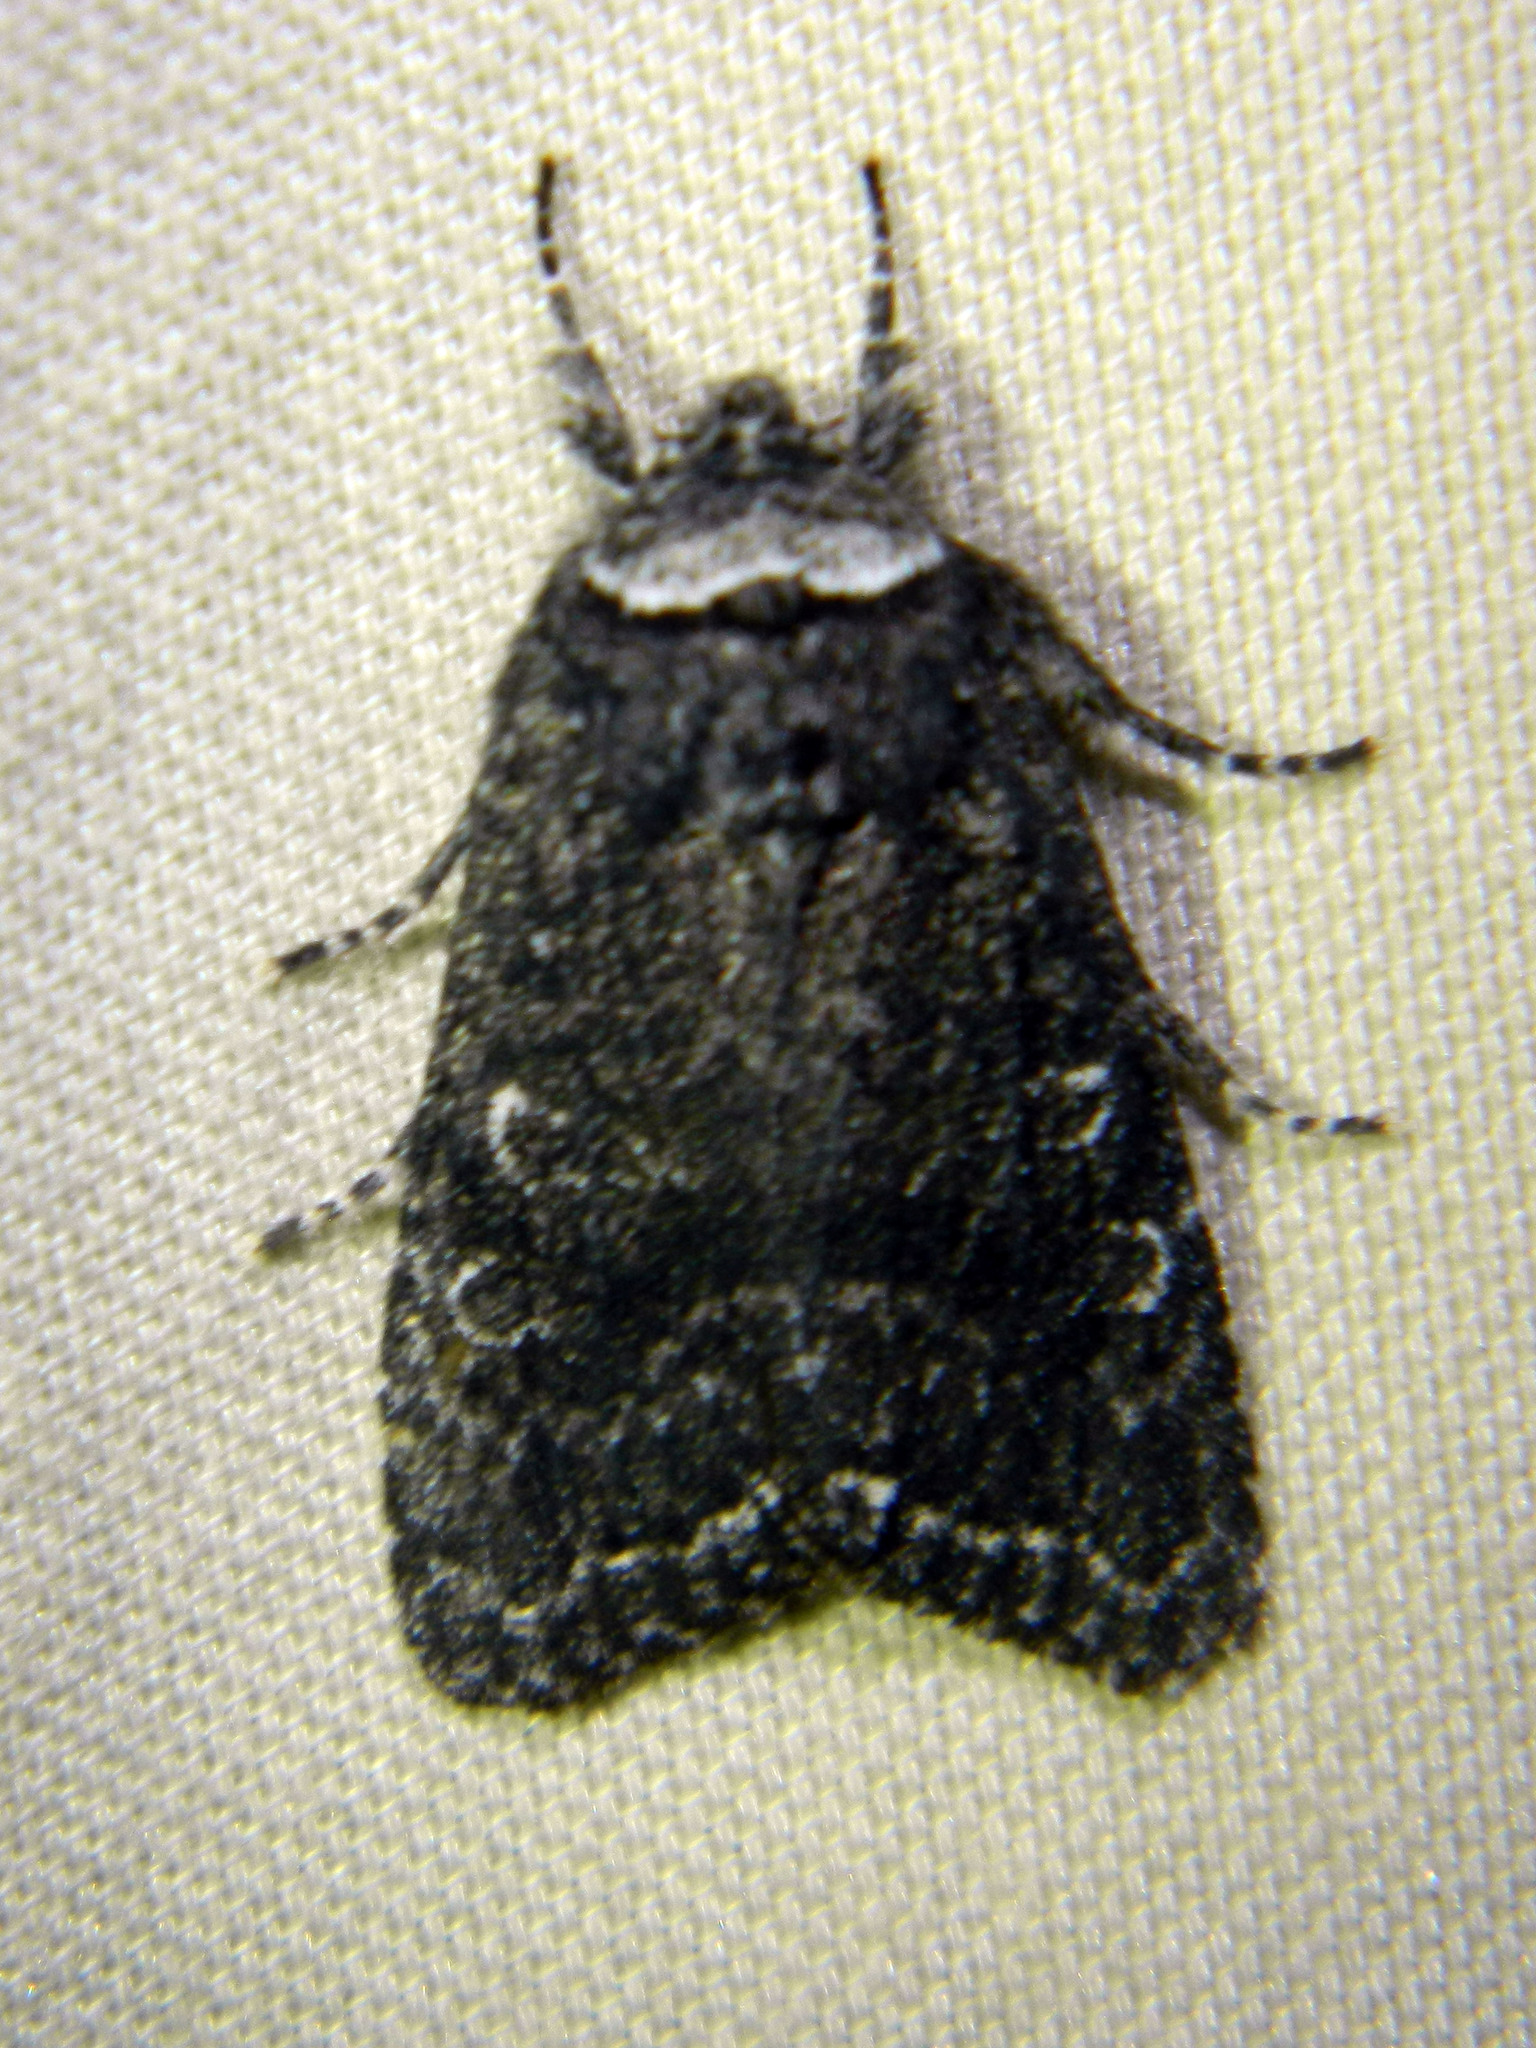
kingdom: Animalia
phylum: Arthropoda
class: Insecta
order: Lepidoptera
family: Noctuidae
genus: Egira
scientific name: Egira dolosa
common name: Lined black aspen cat.
